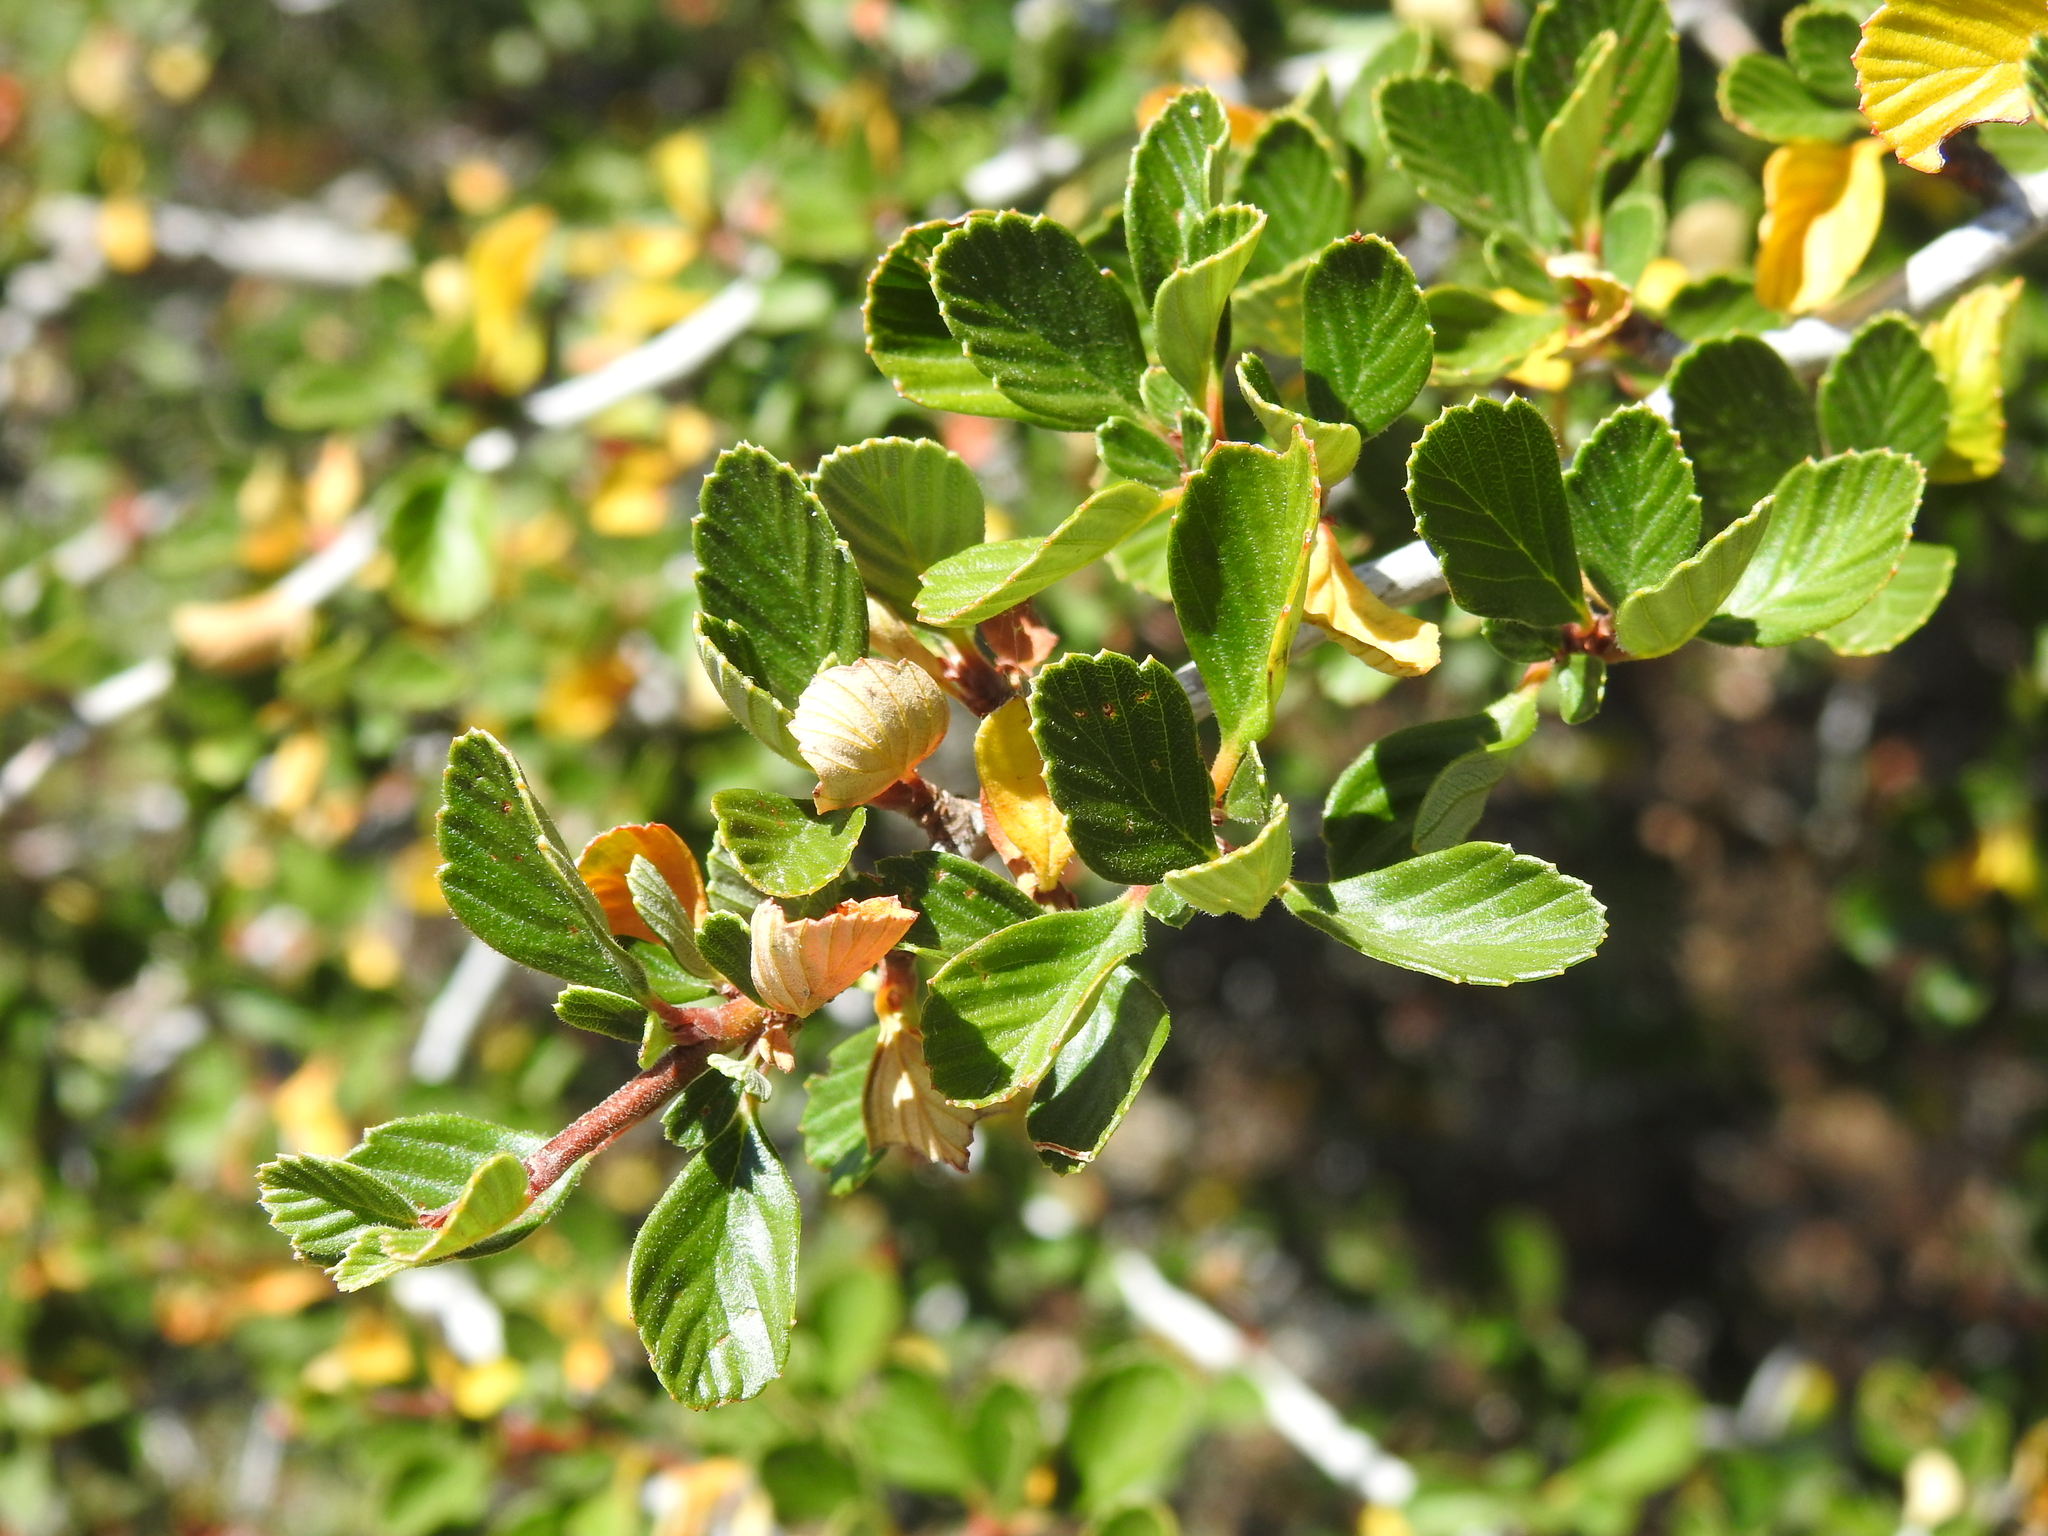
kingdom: Plantae
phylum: Tracheophyta
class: Magnoliopsida
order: Rosales
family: Rosaceae
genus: Cercocarpus
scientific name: Cercocarpus betuloides
